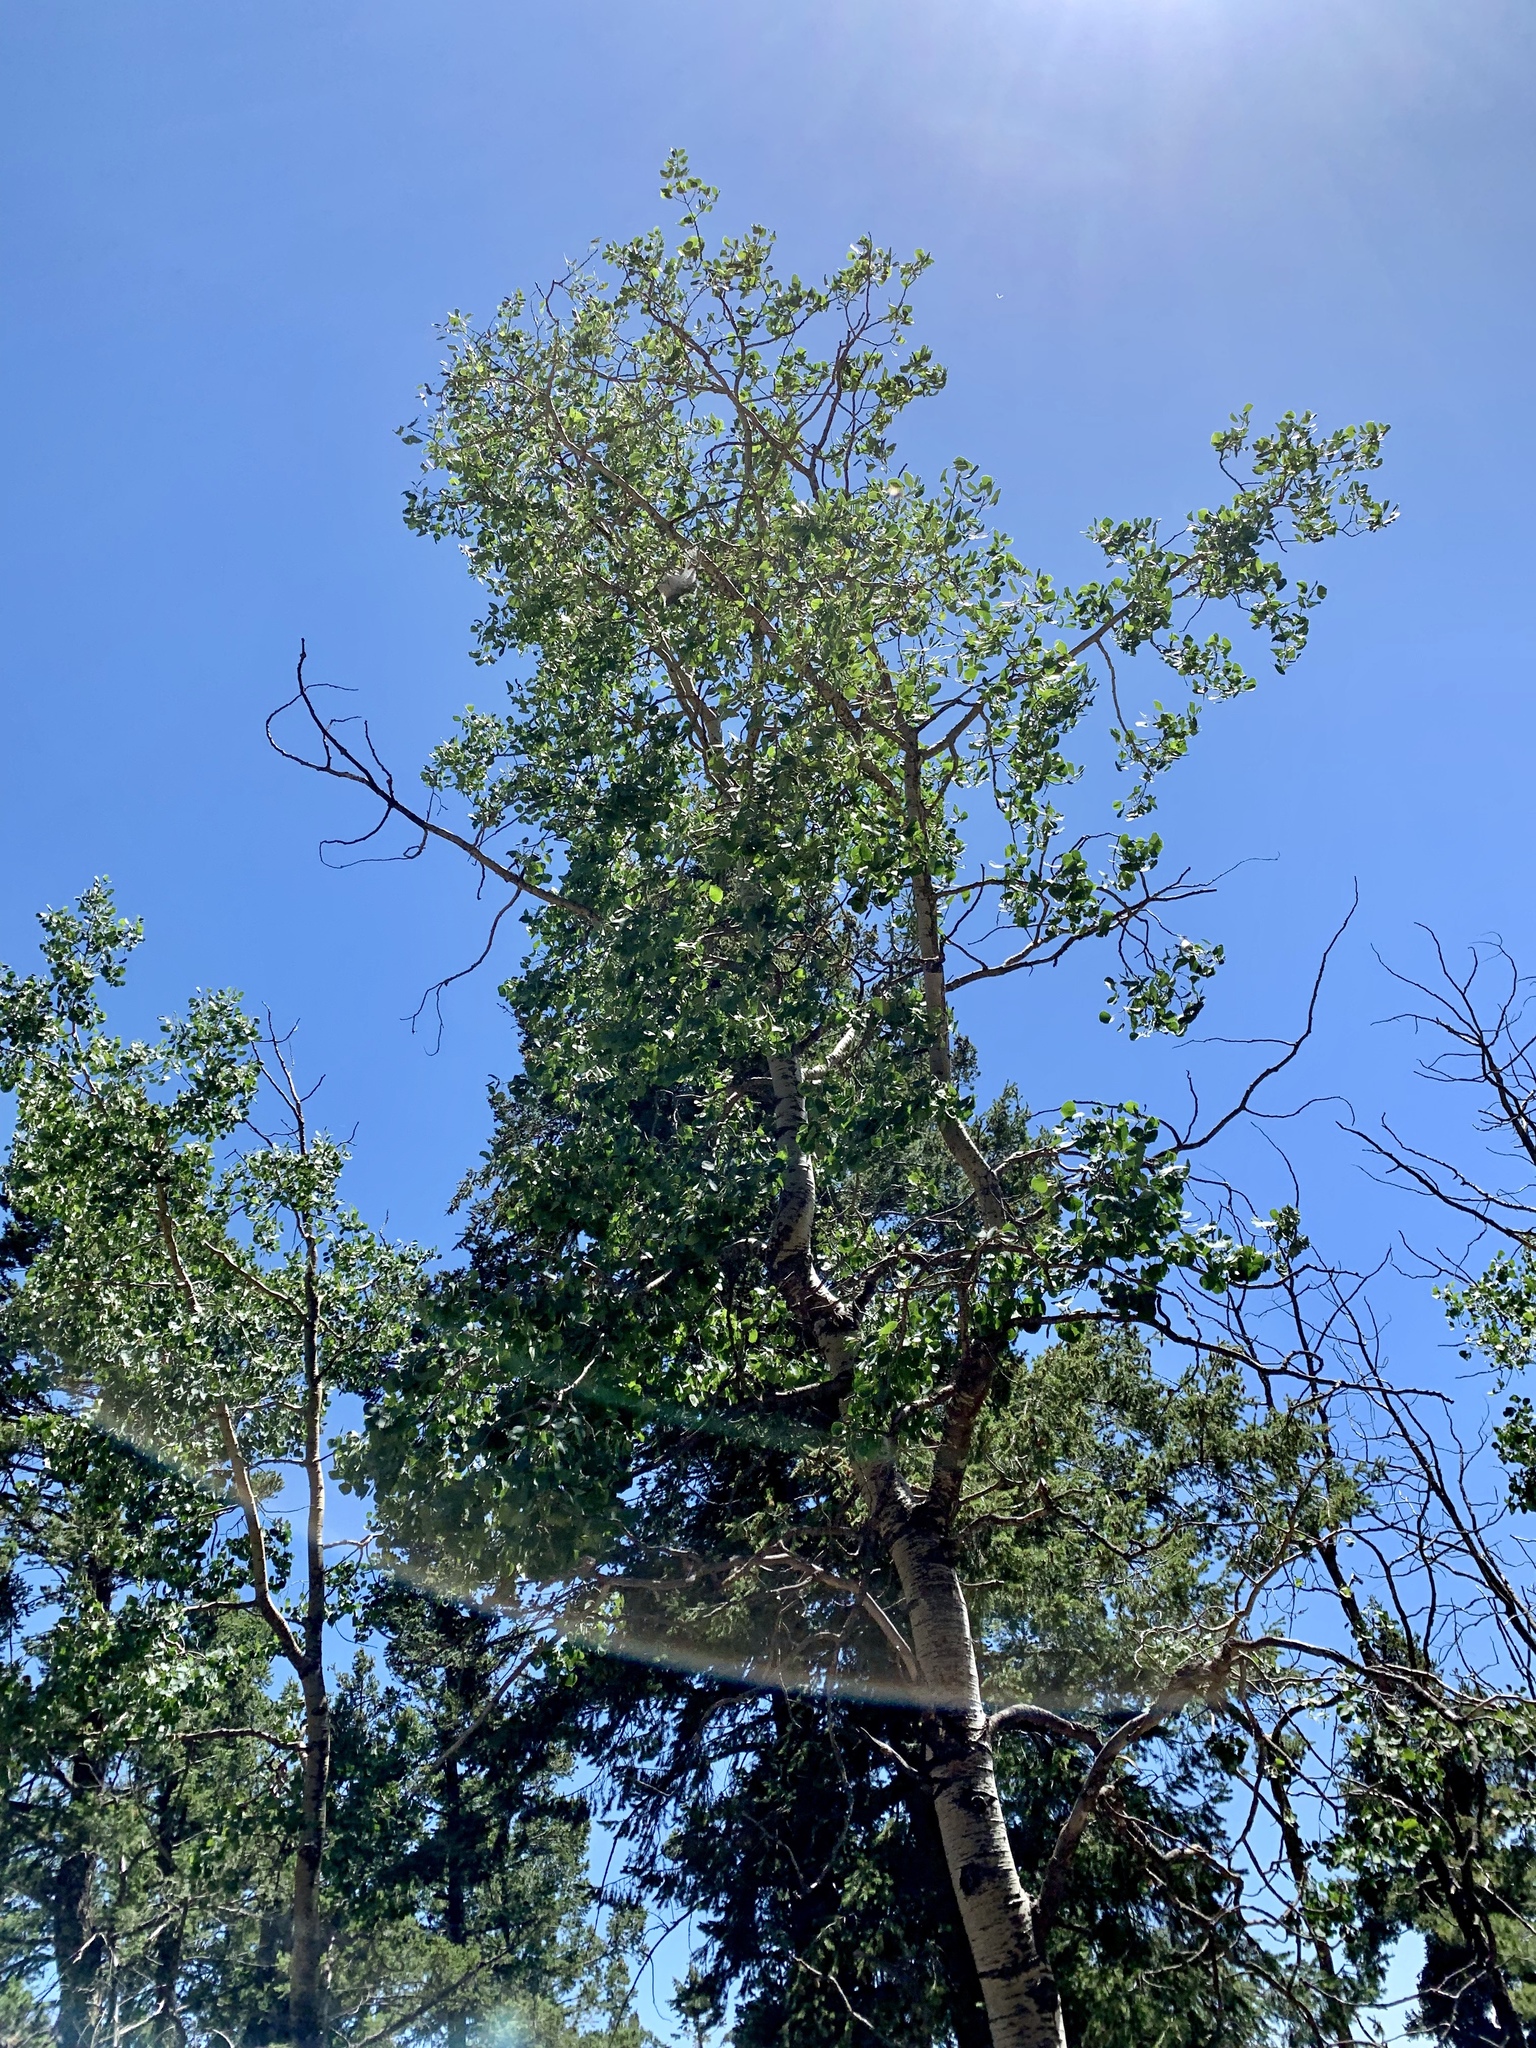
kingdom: Plantae
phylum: Tracheophyta
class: Magnoliopsida
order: Malpighiales
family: Salicaceae
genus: Populus
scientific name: Populus tremuloides
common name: Quaking aspen
